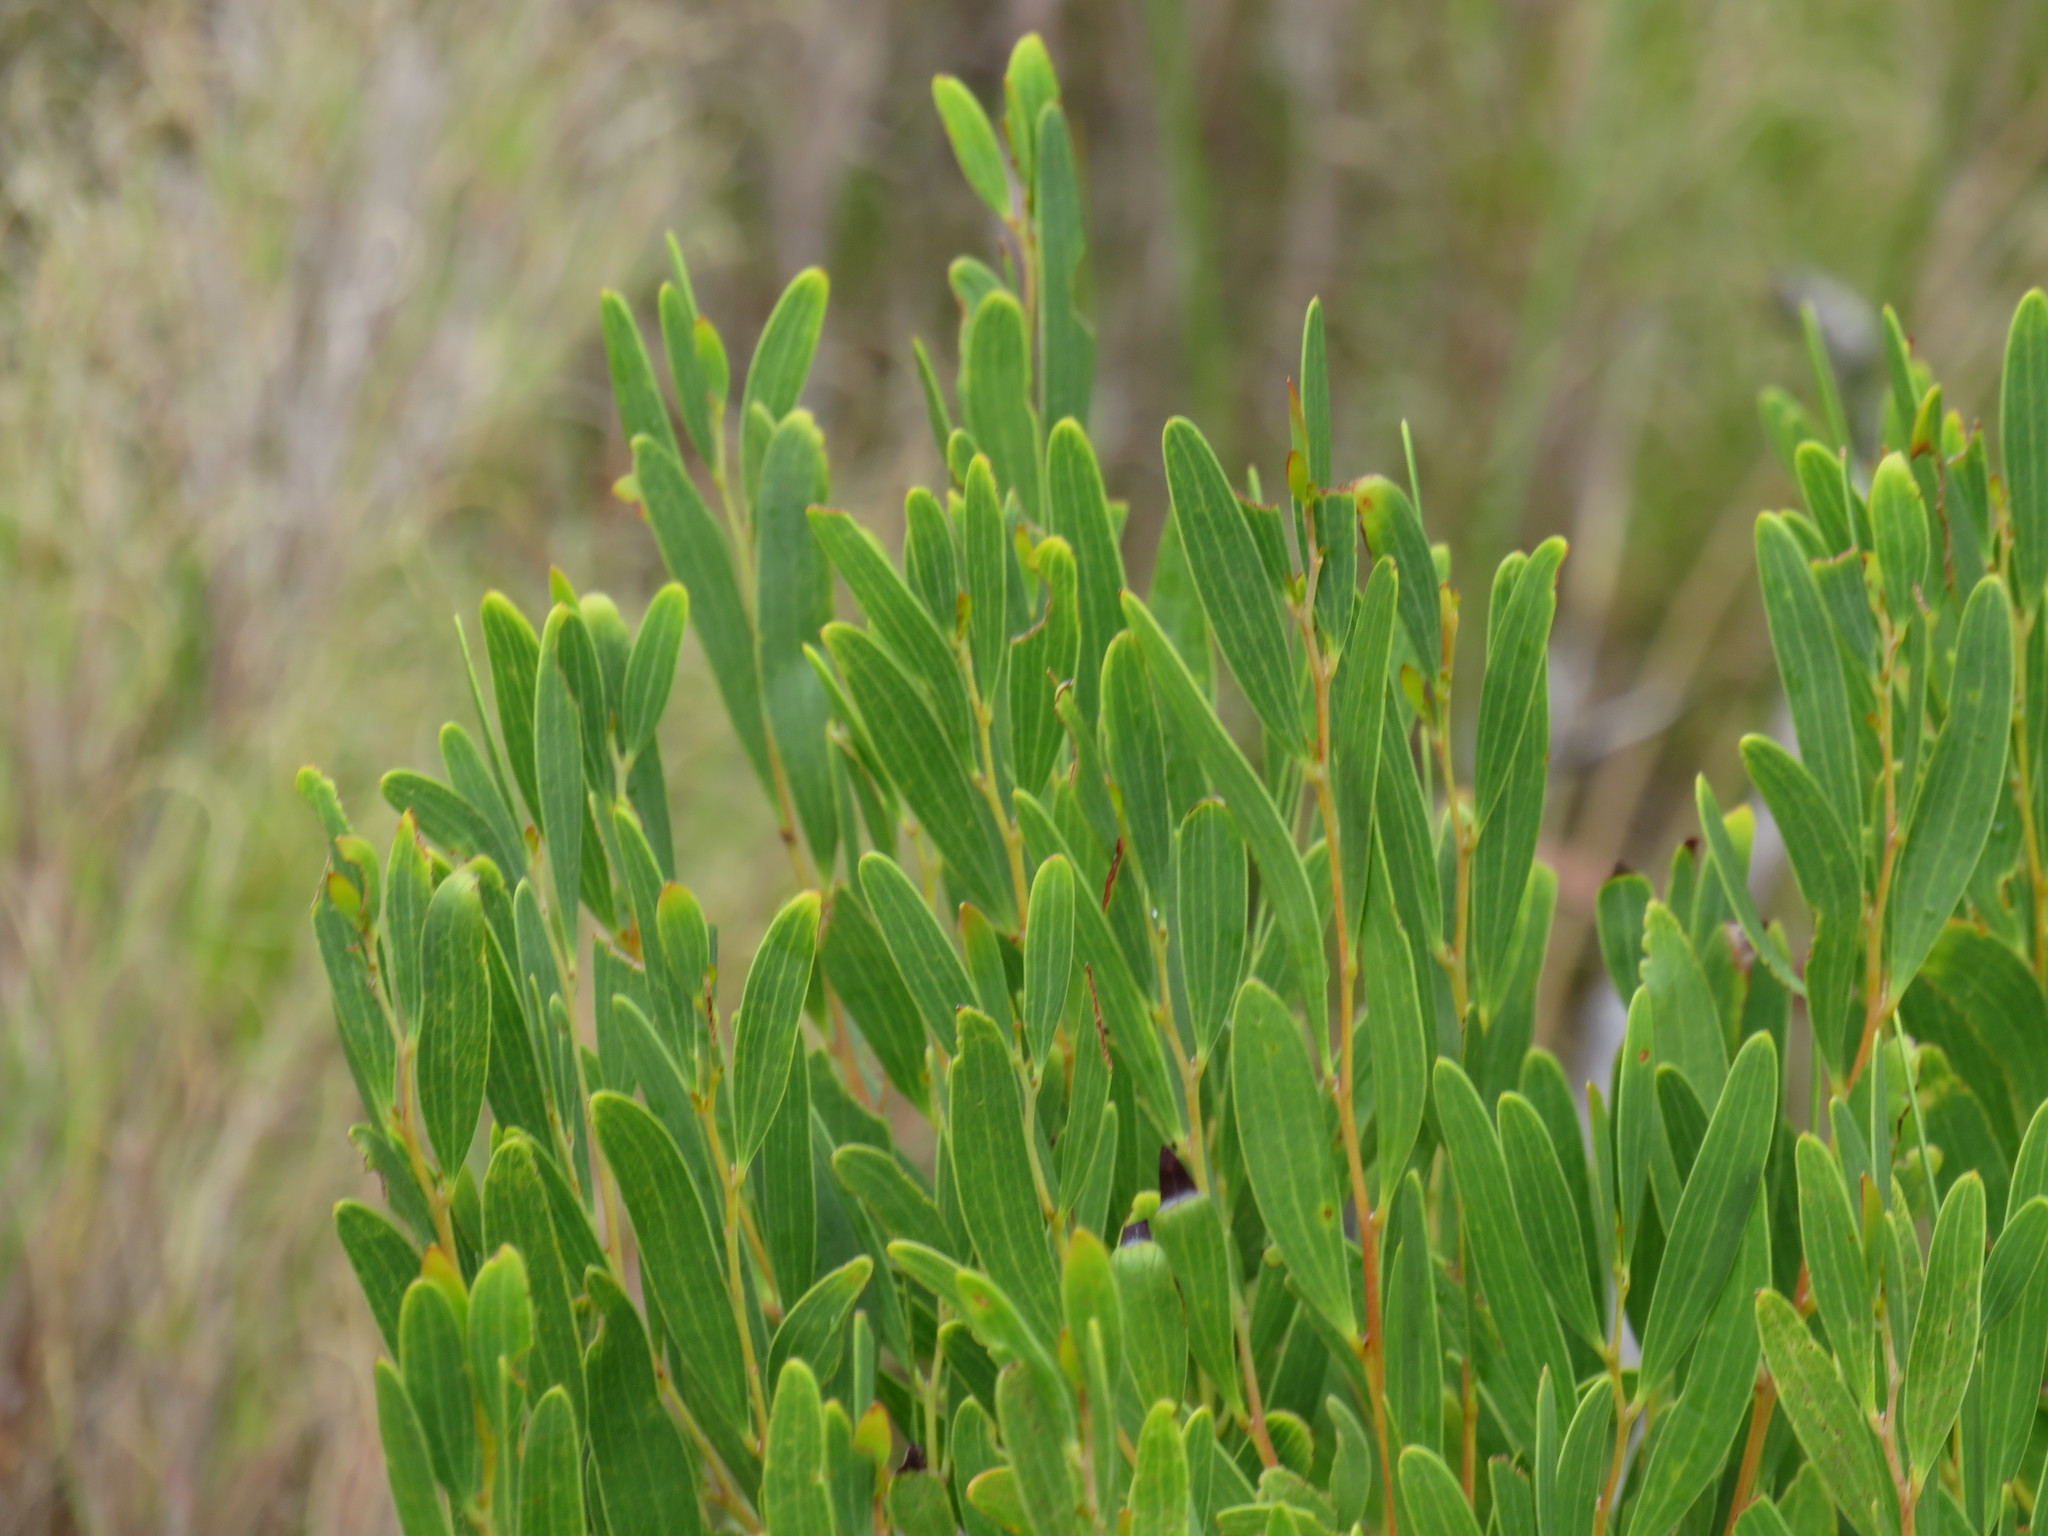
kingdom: Plantae
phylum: Tracheophyta
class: Magnoliopsida
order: Fabales
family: Fabaceae
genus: Acacia
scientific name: Acacia cyclops
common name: Coastal wattle
